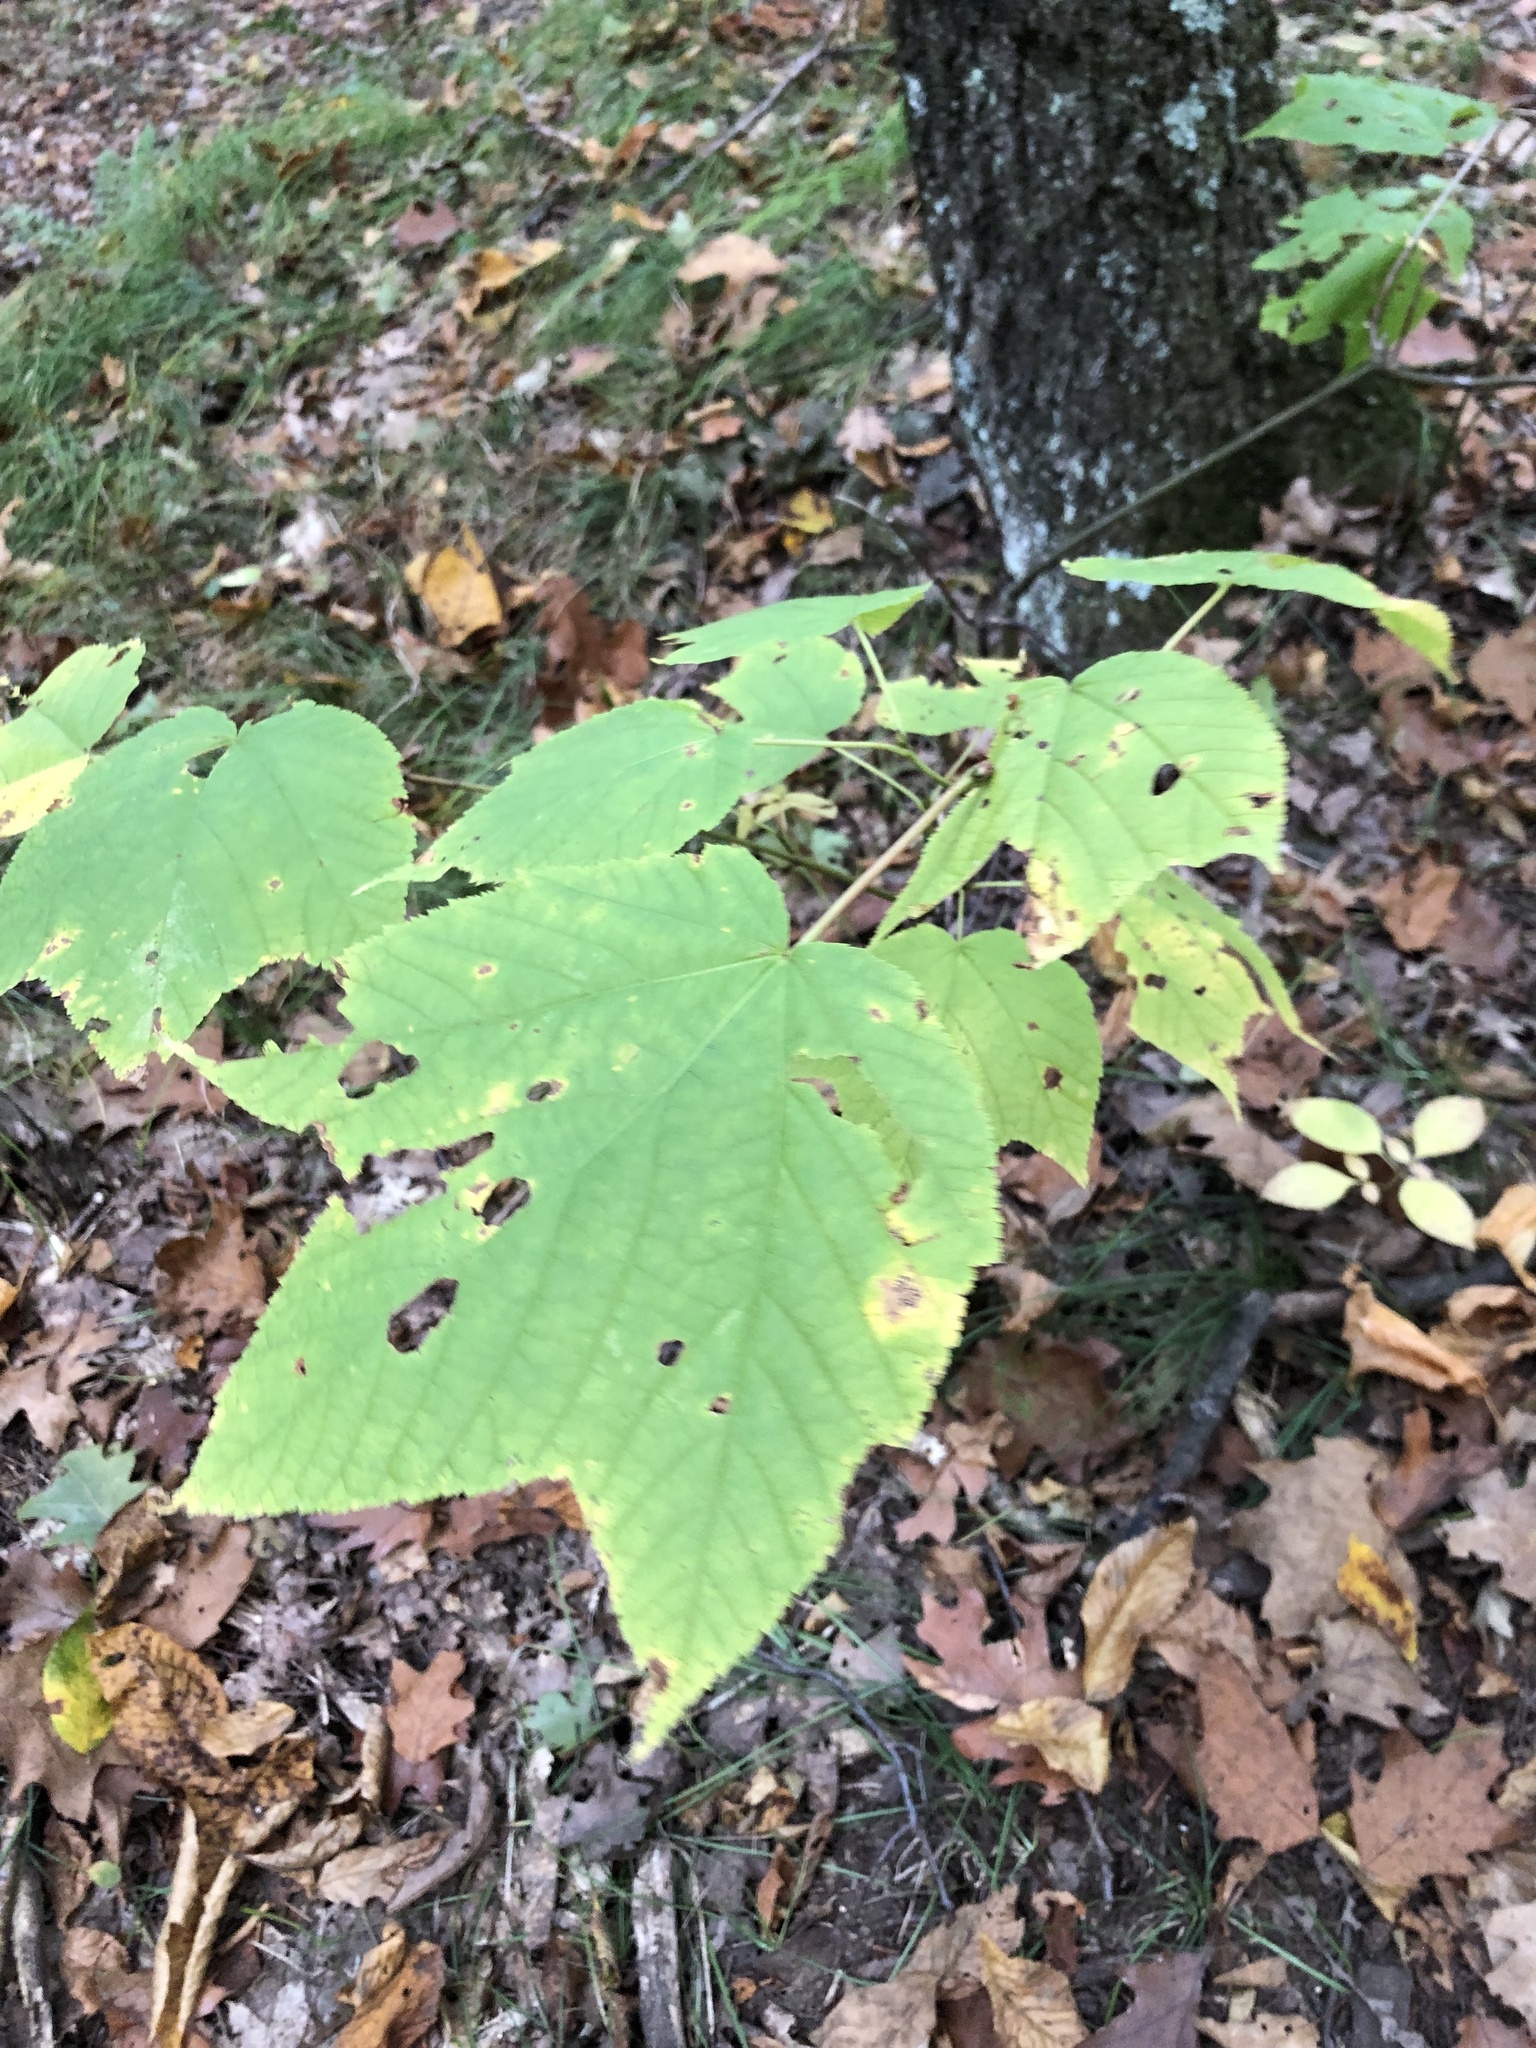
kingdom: Plantae
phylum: Tracheophyta
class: Magnoliopsida
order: Sapindales
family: Sapindaceae
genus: Acer
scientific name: Acer pensylvanicum
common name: Moosewood
